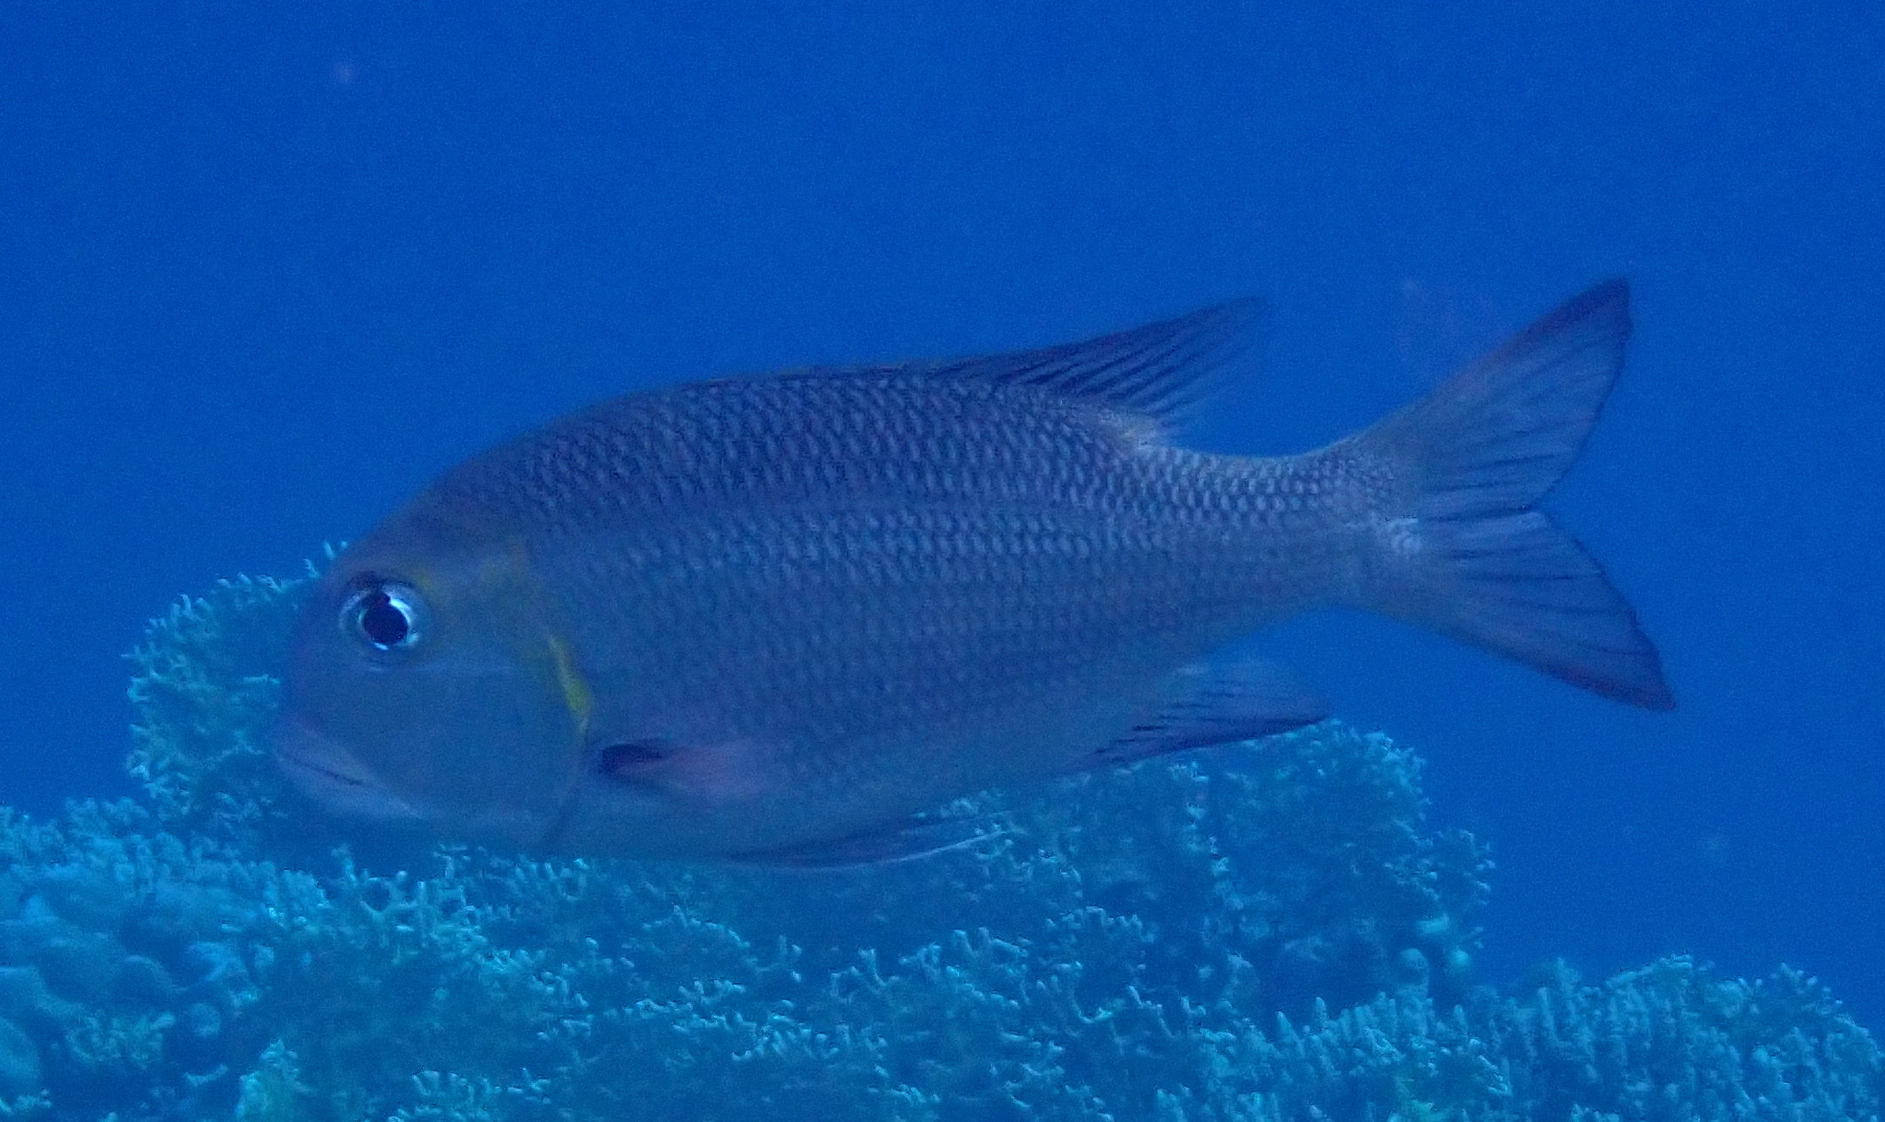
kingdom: Animalia
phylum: Chordata
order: Perciformes
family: Lethrinidae
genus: Monotaxis
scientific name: Monotaxis grandoculis
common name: Bigeye emperor
